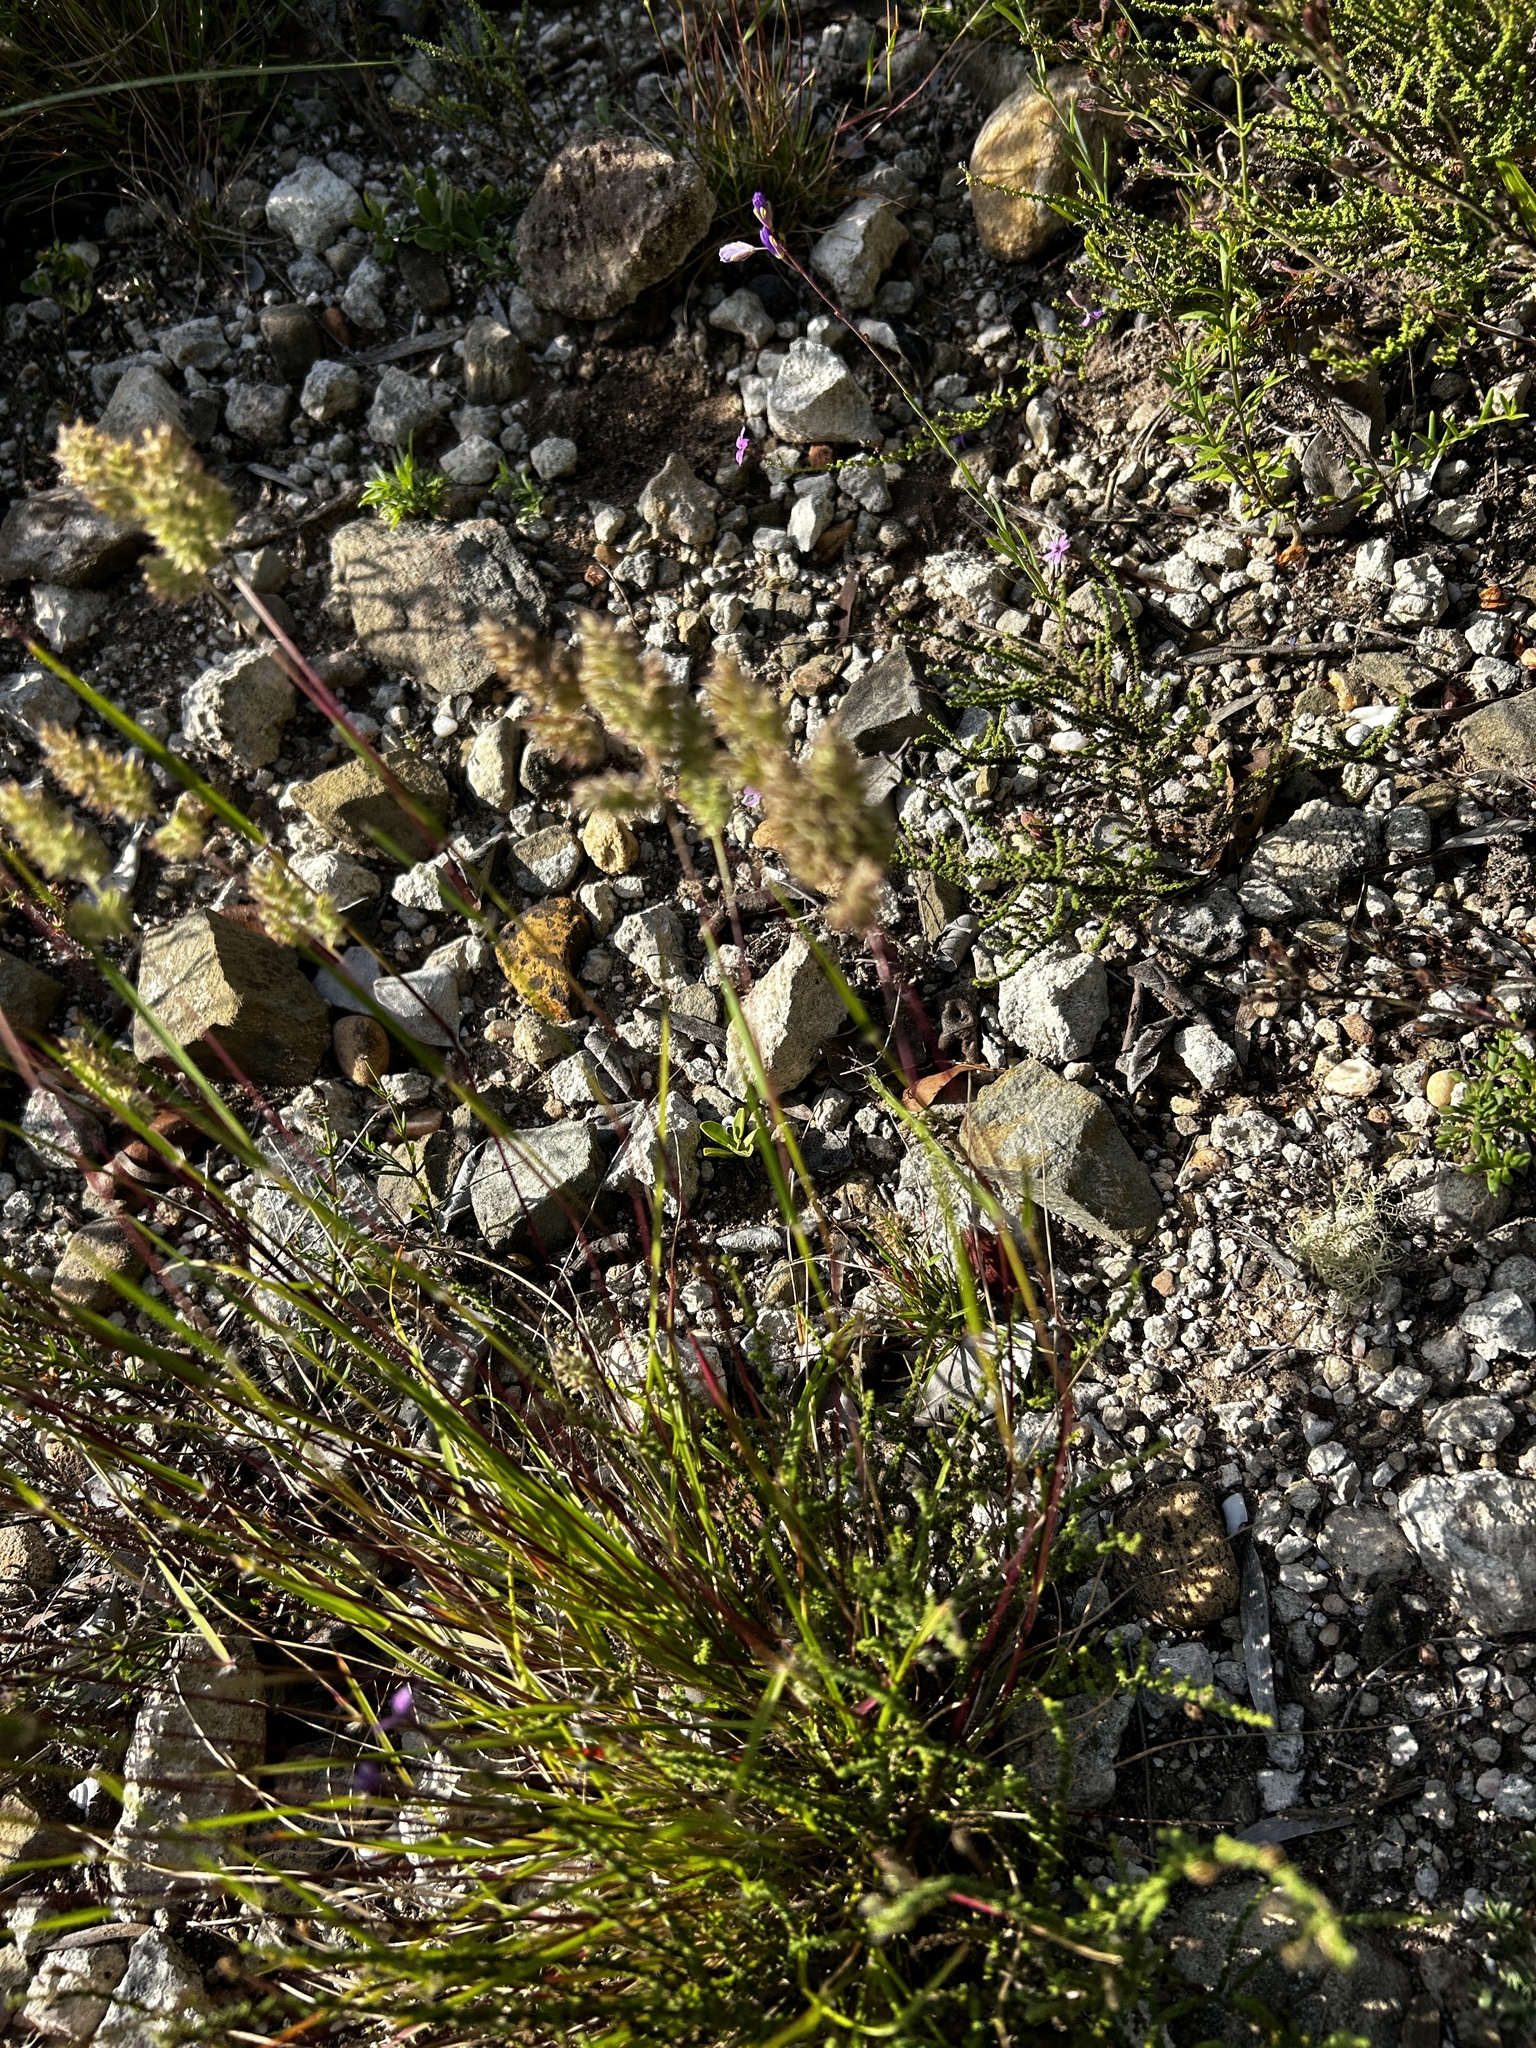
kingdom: Plantae
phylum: Tracheophyta
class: Liliopsida
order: Poales
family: Poaceae
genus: Tribolium
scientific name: Tribolium hispidum
